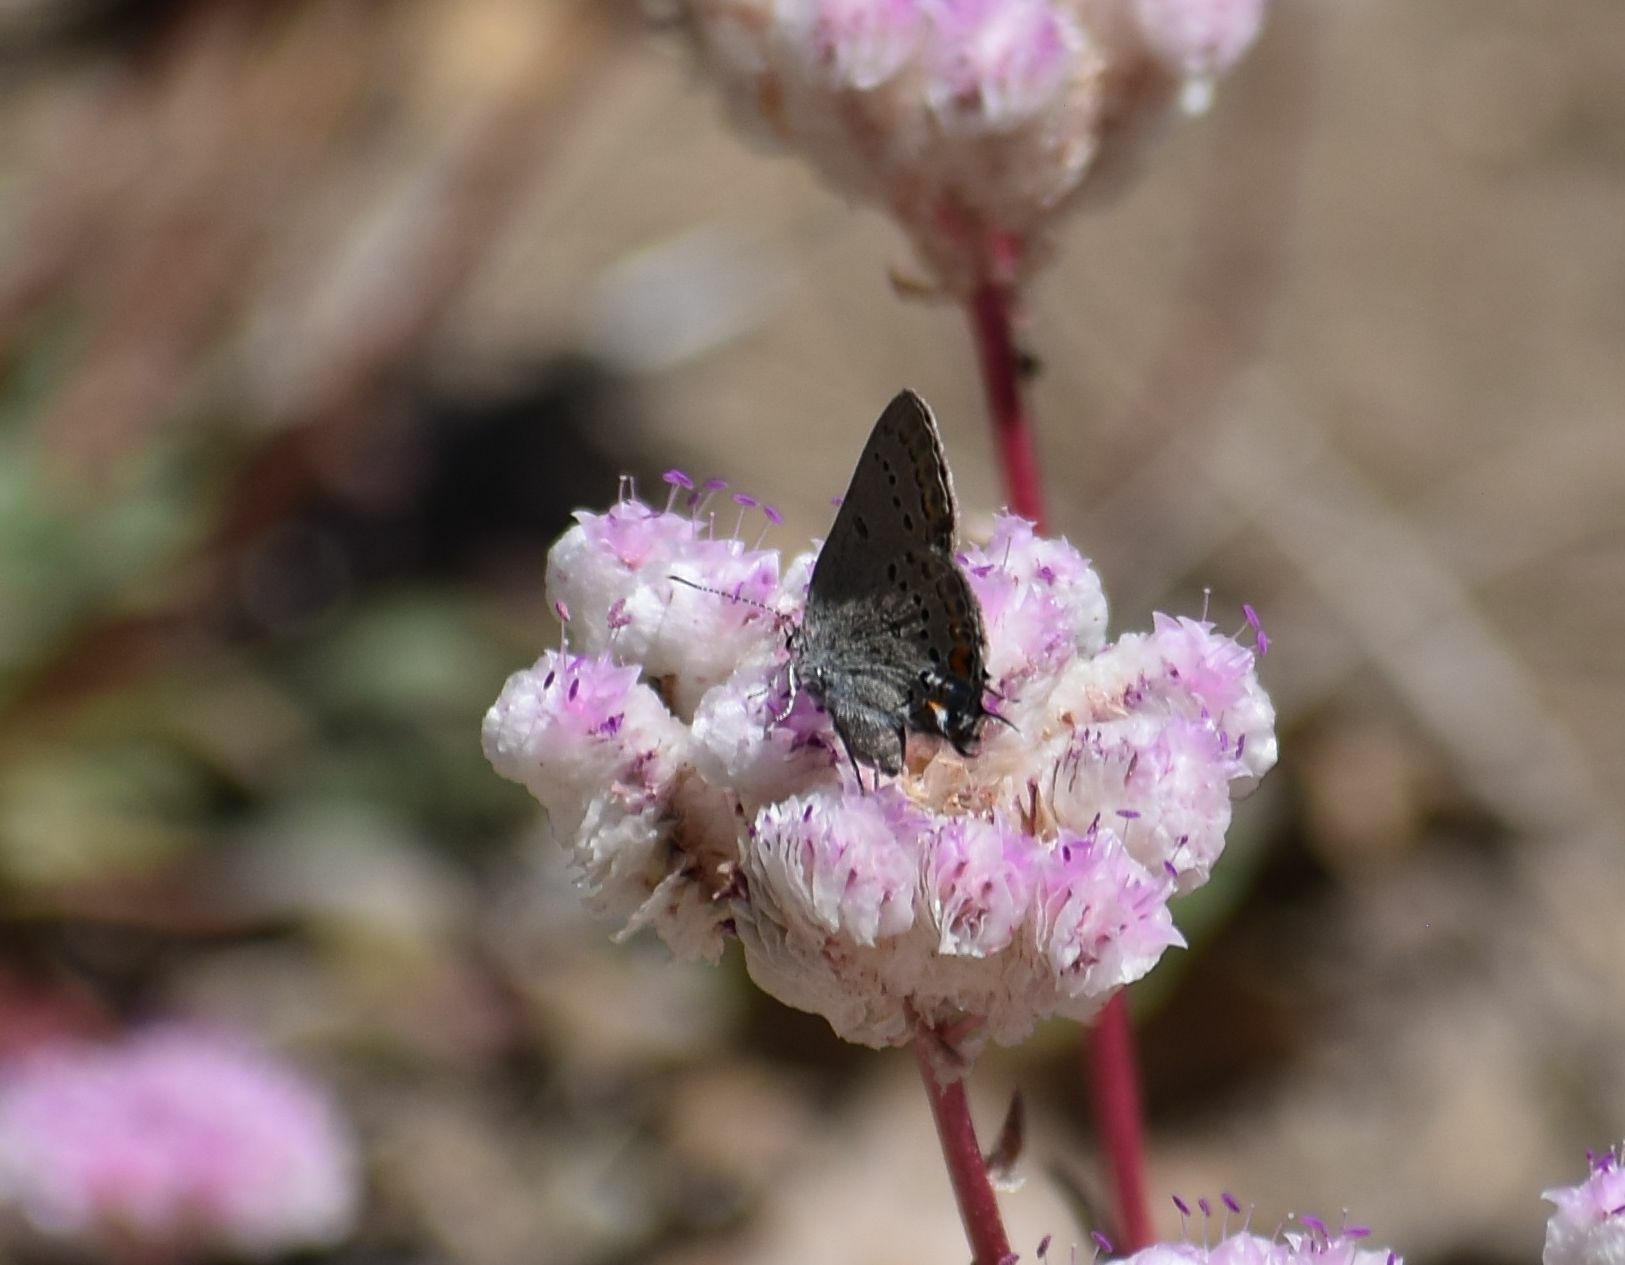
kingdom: Animalia
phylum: Arthropoda
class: Insecta
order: Lepidoptera
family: Lycaenidae
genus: Strymon
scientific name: Strymon acadica
